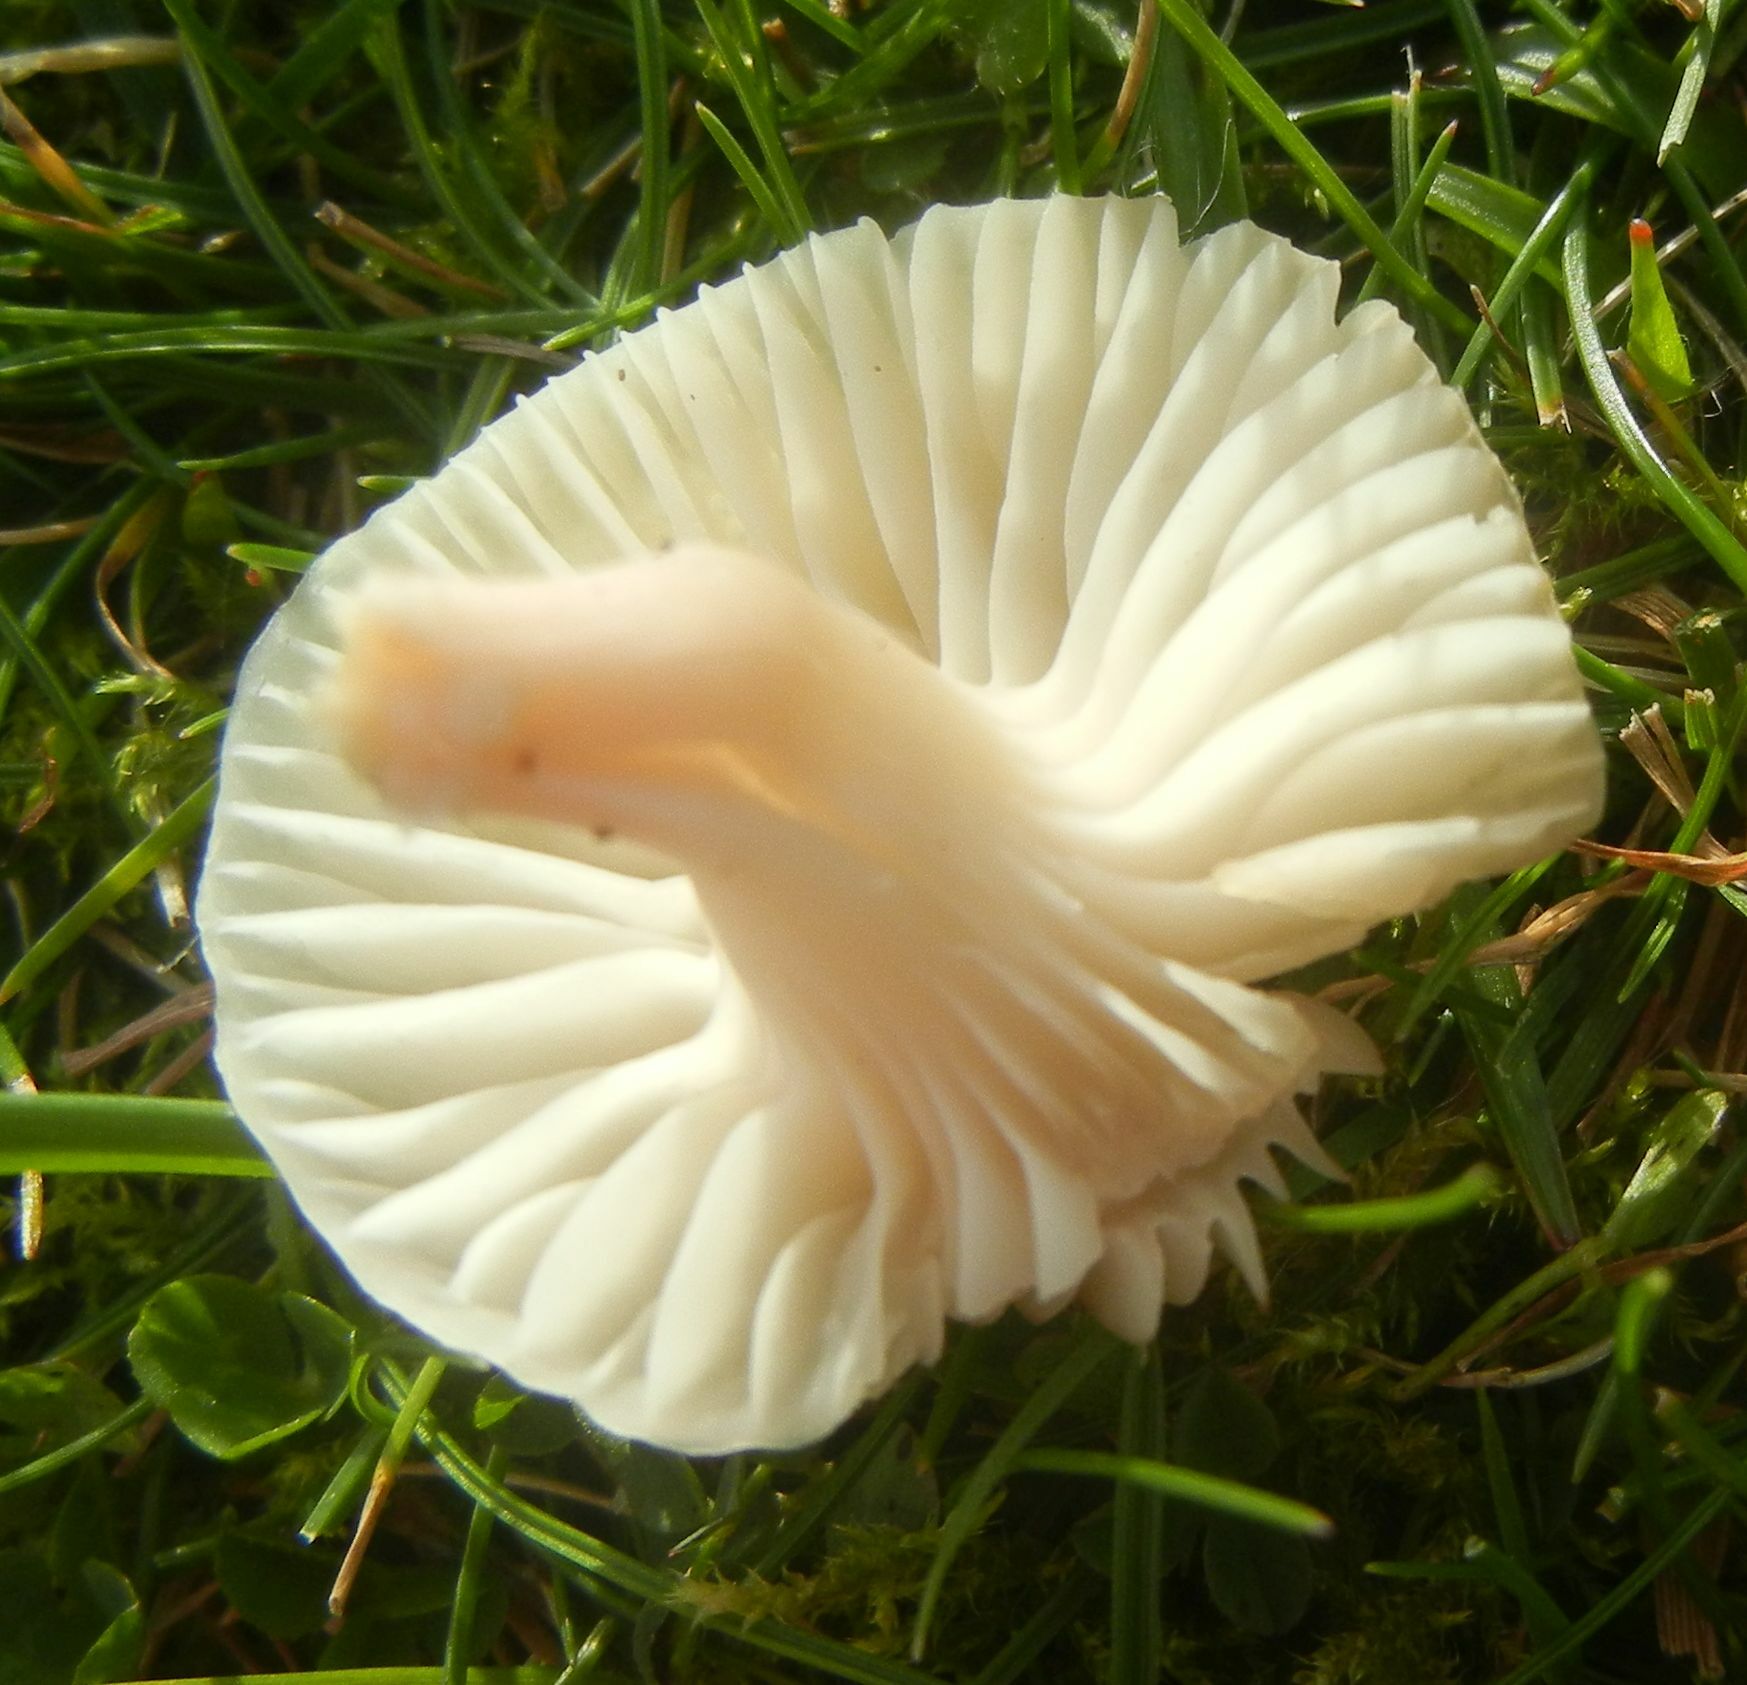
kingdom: Fungi
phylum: Basidiomycota
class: Agaricomycetes
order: Agaricales
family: Hygrophoraceae
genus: Cuphophyllus
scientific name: Cuphophyllus virgineus
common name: Snowy waxcap
